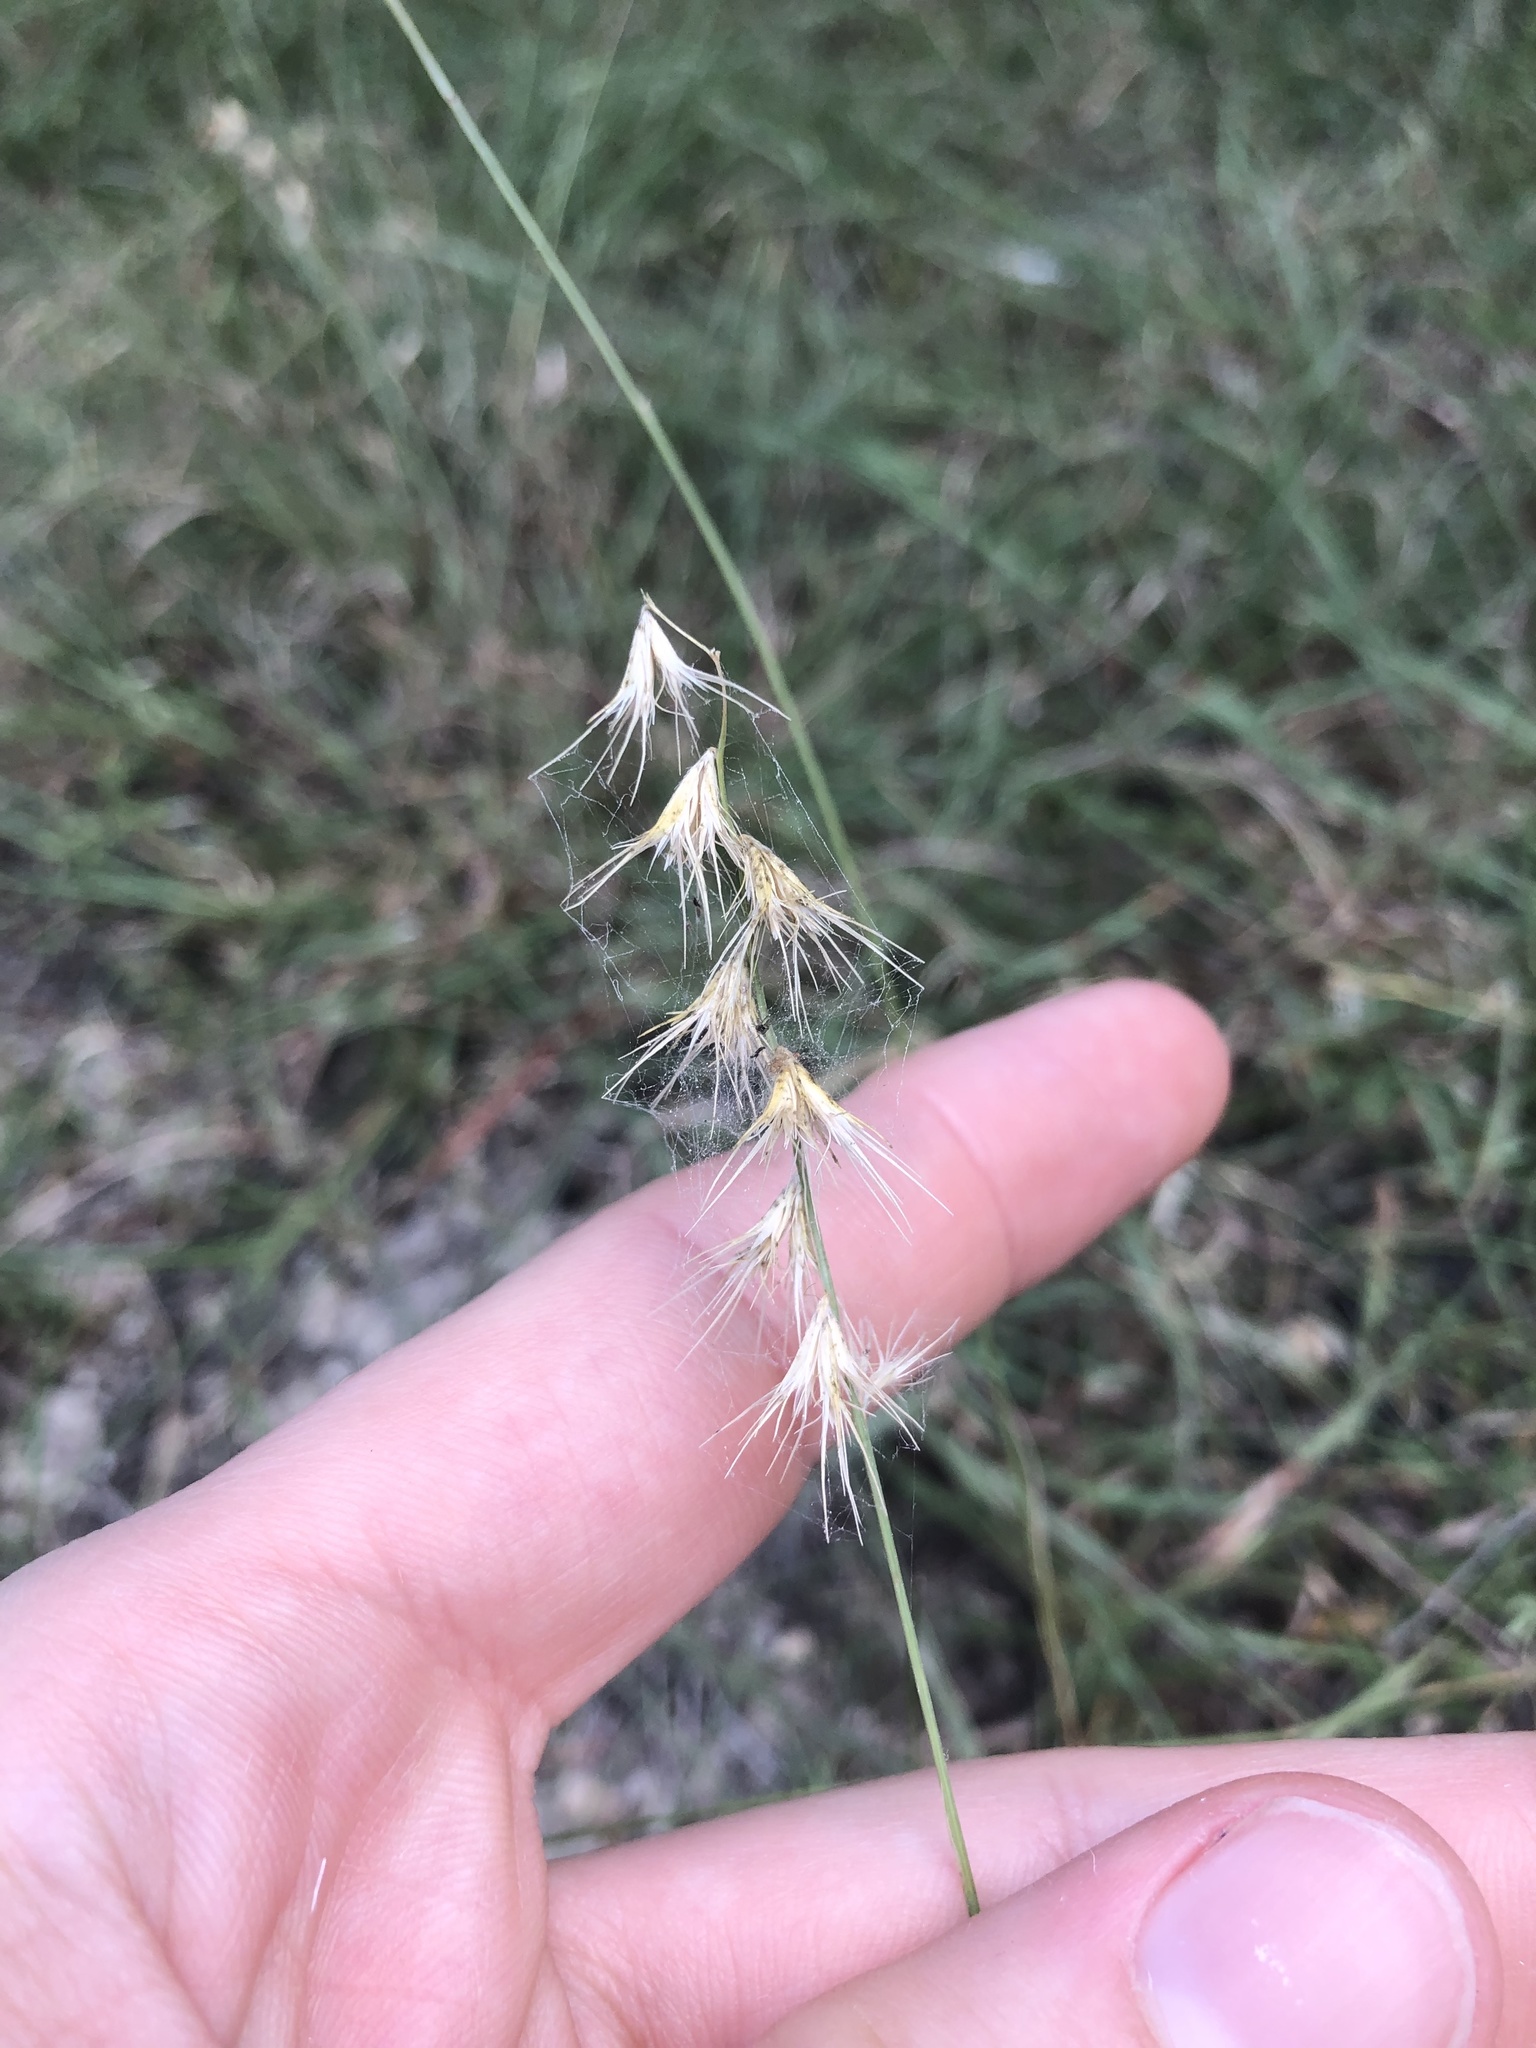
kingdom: Plantae
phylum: Tracheophyta
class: Liliopsida
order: Poales
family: Poaceae
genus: Bouteloua
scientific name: Bouteloua rigidiseta
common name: Texas grama
